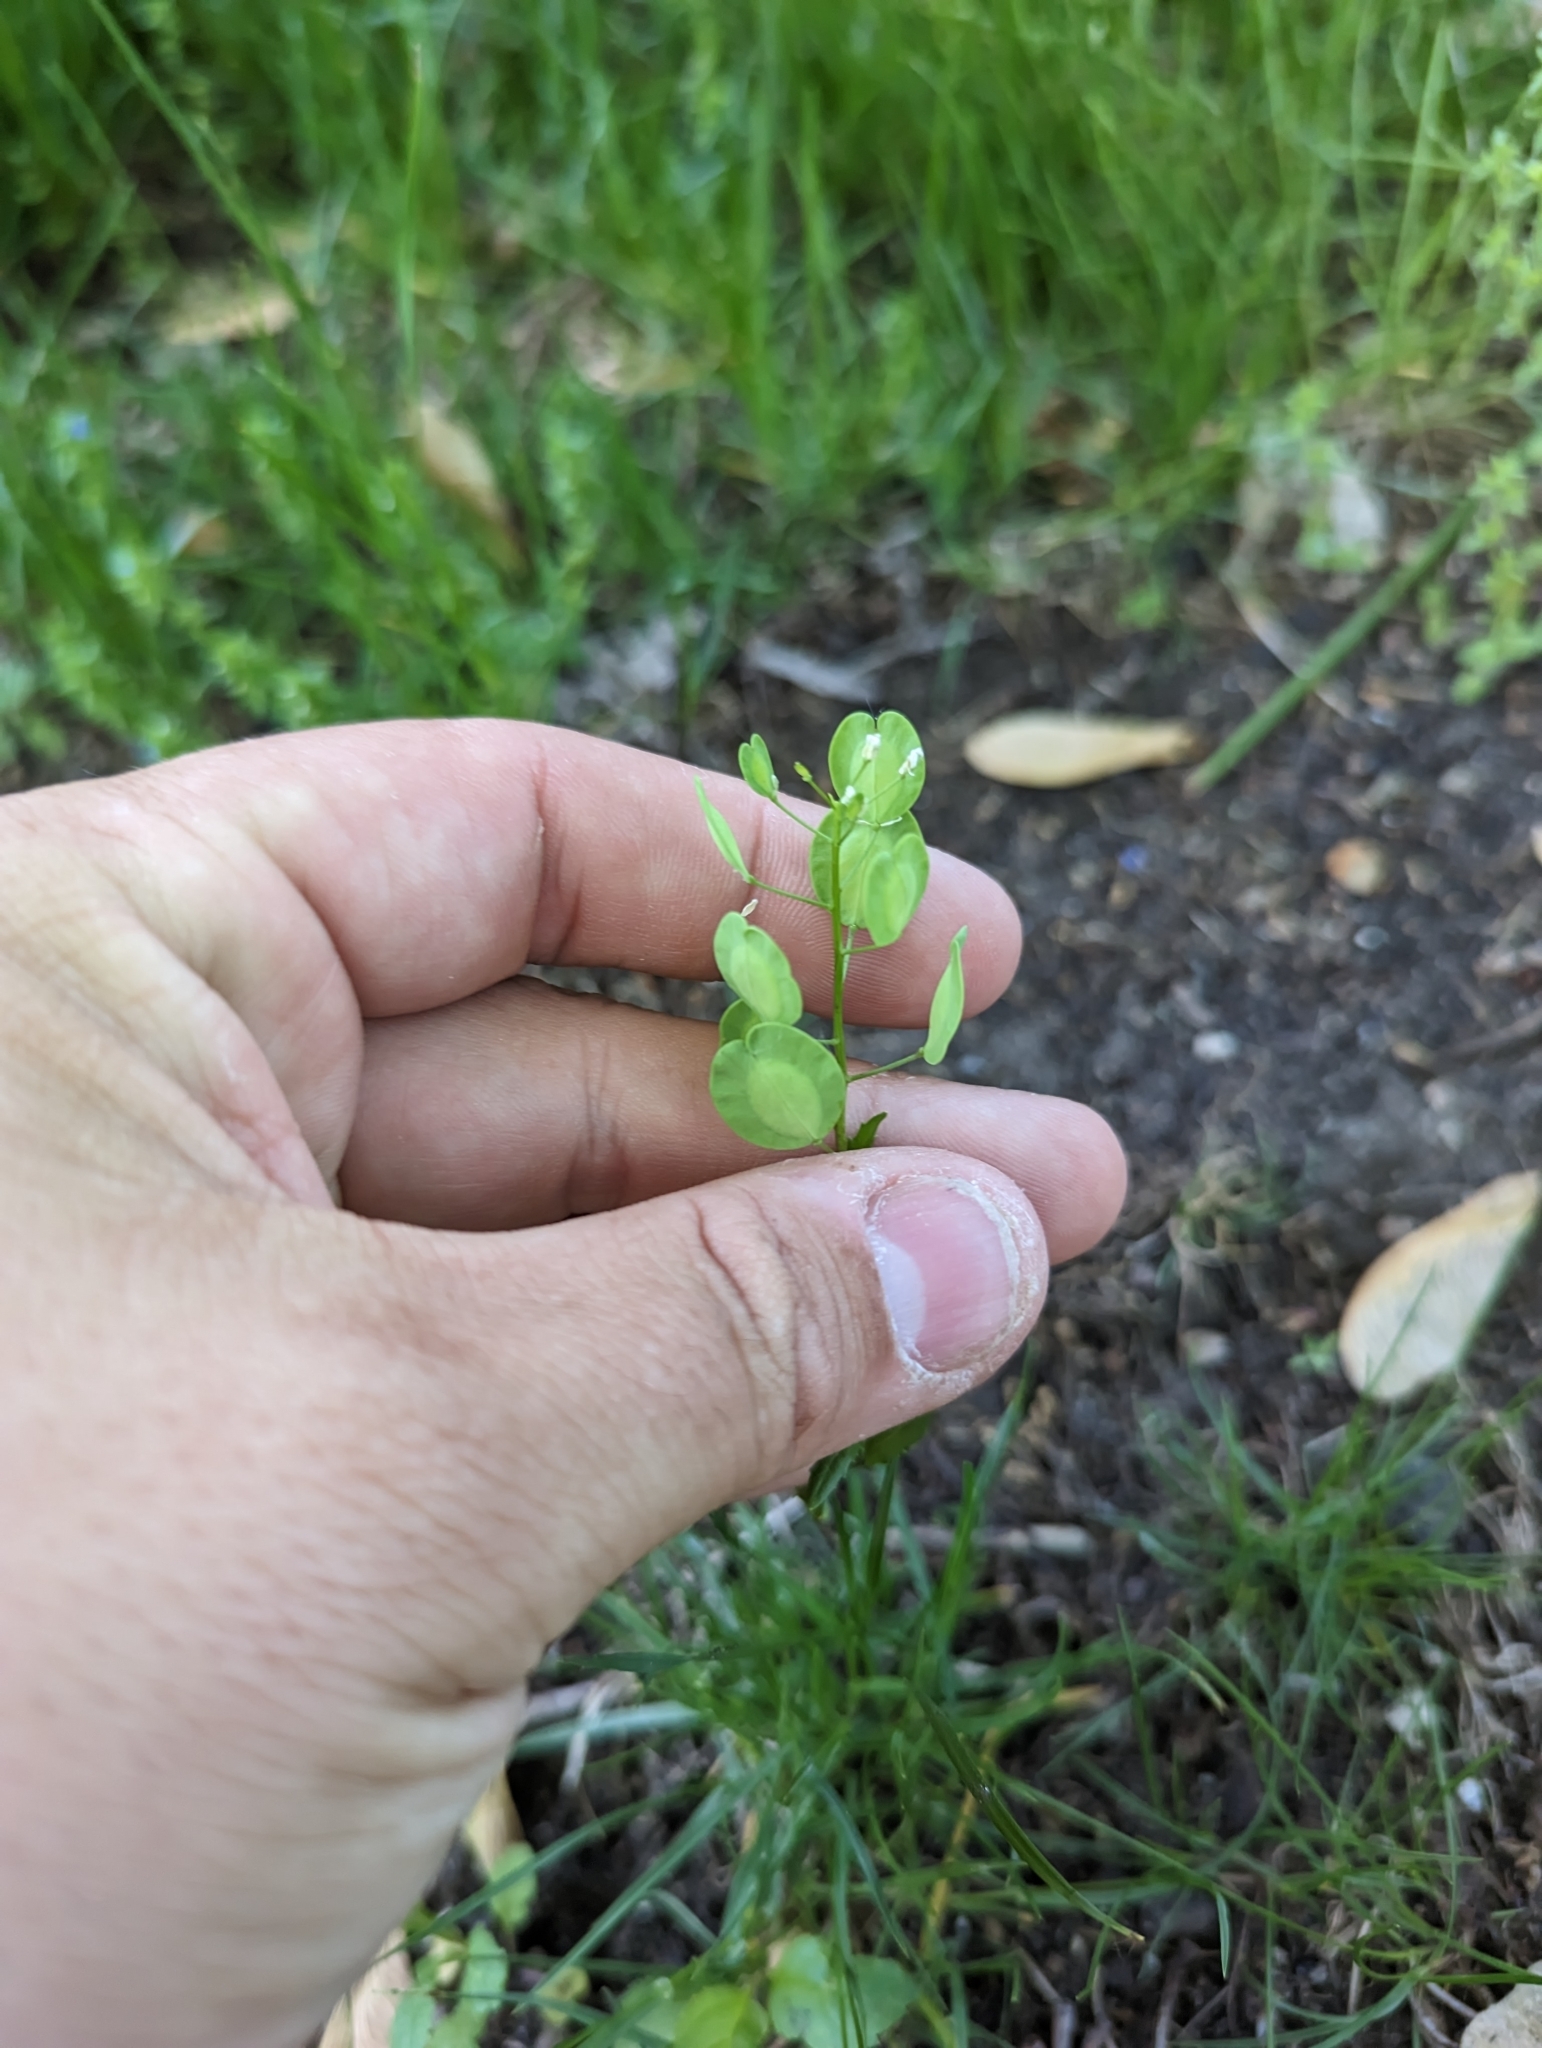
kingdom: Plantae
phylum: Tracheophyta
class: Magnoliopsida
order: Brassicales
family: Brassicaceae
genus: Thlaspi
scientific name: Thlaspi arvense
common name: Field pennycress
